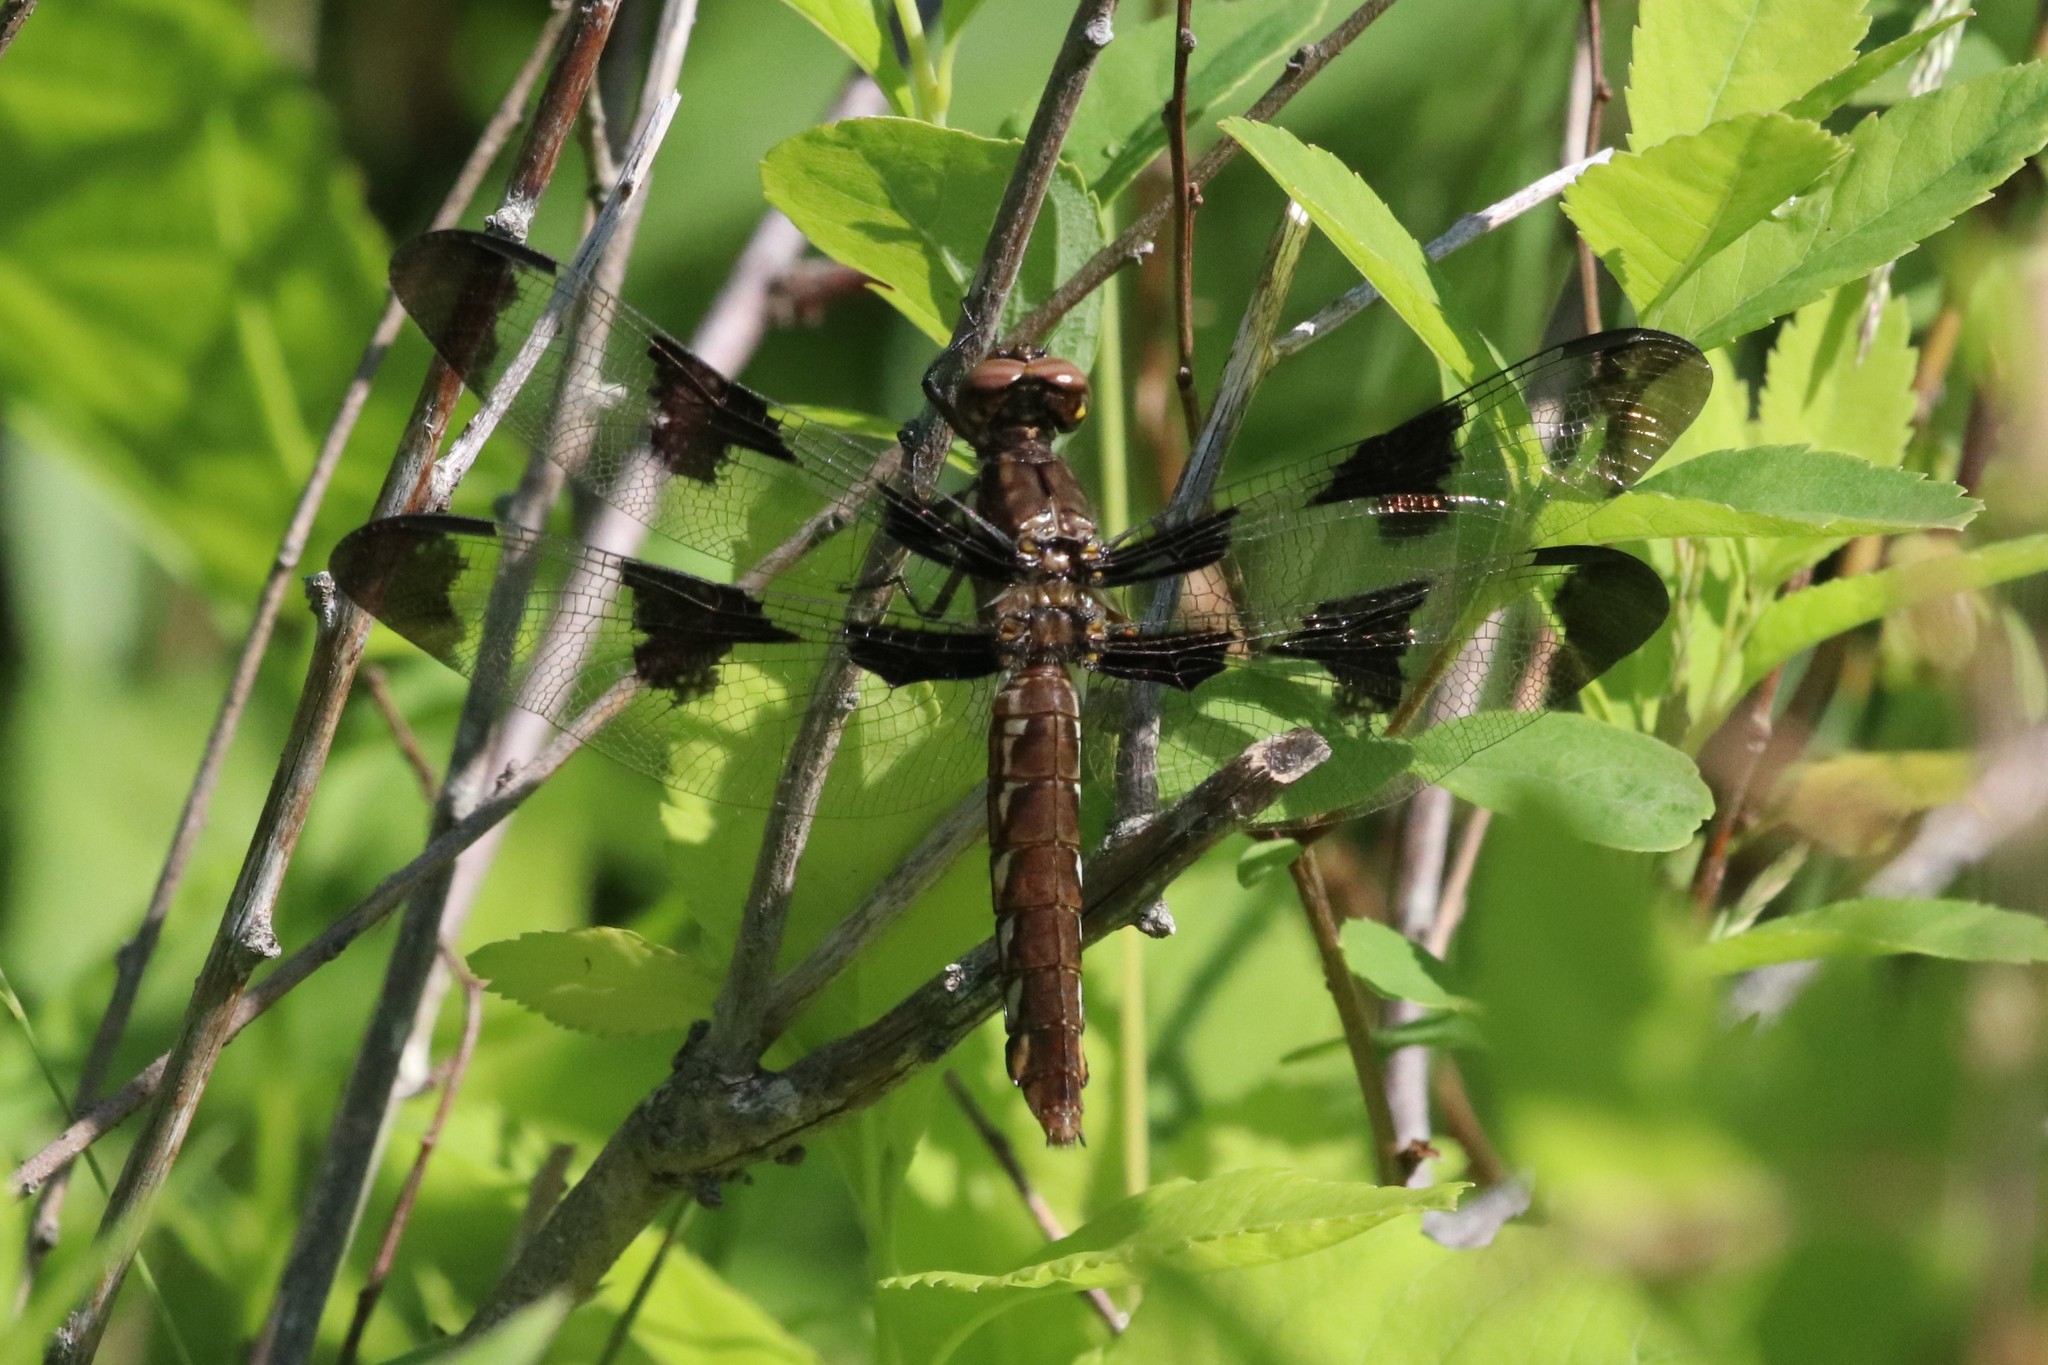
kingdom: Animalia
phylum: Arthropoda
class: Insecta
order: Odonata
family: Libellulidae
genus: Plathemis
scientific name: Plathemis lydia
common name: Common whitetail
